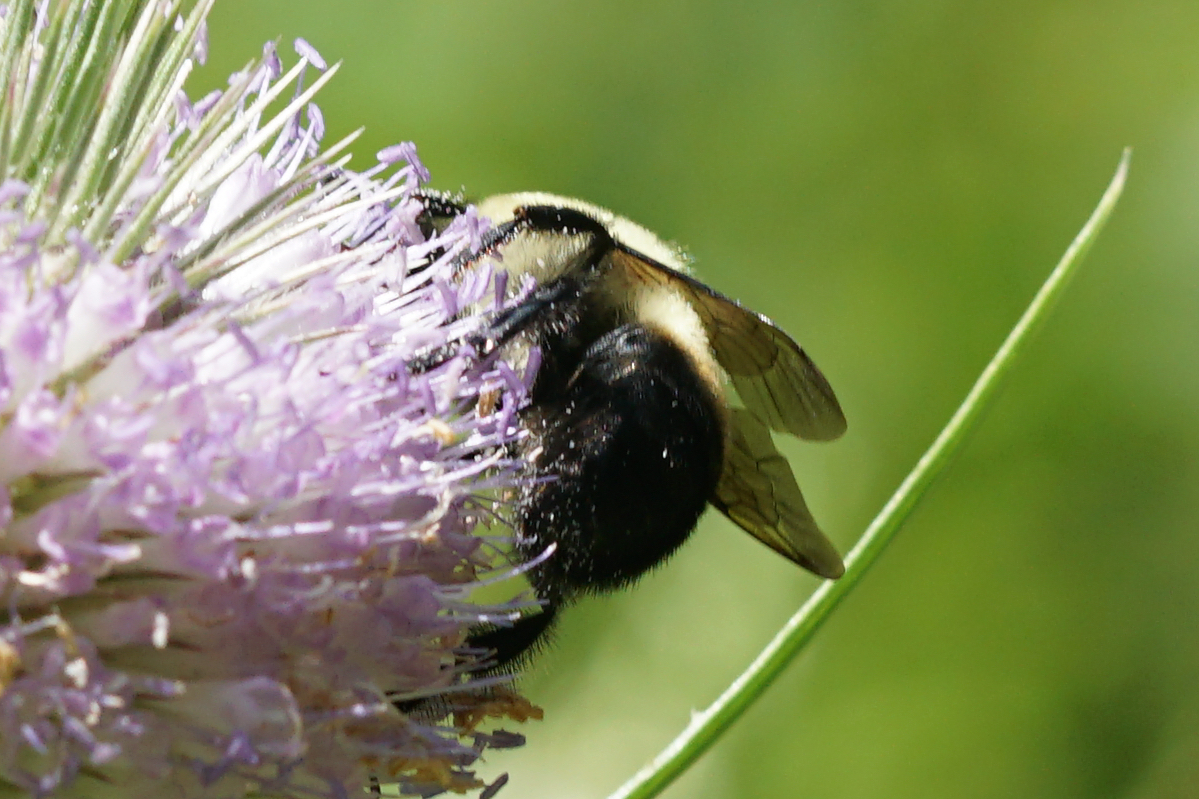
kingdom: Animalia
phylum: Arthropoda
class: Insecta
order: Hymenoptera
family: Apidae
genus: Bombus
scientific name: Bombus griseocollis
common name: Brown-belted bumble bee
